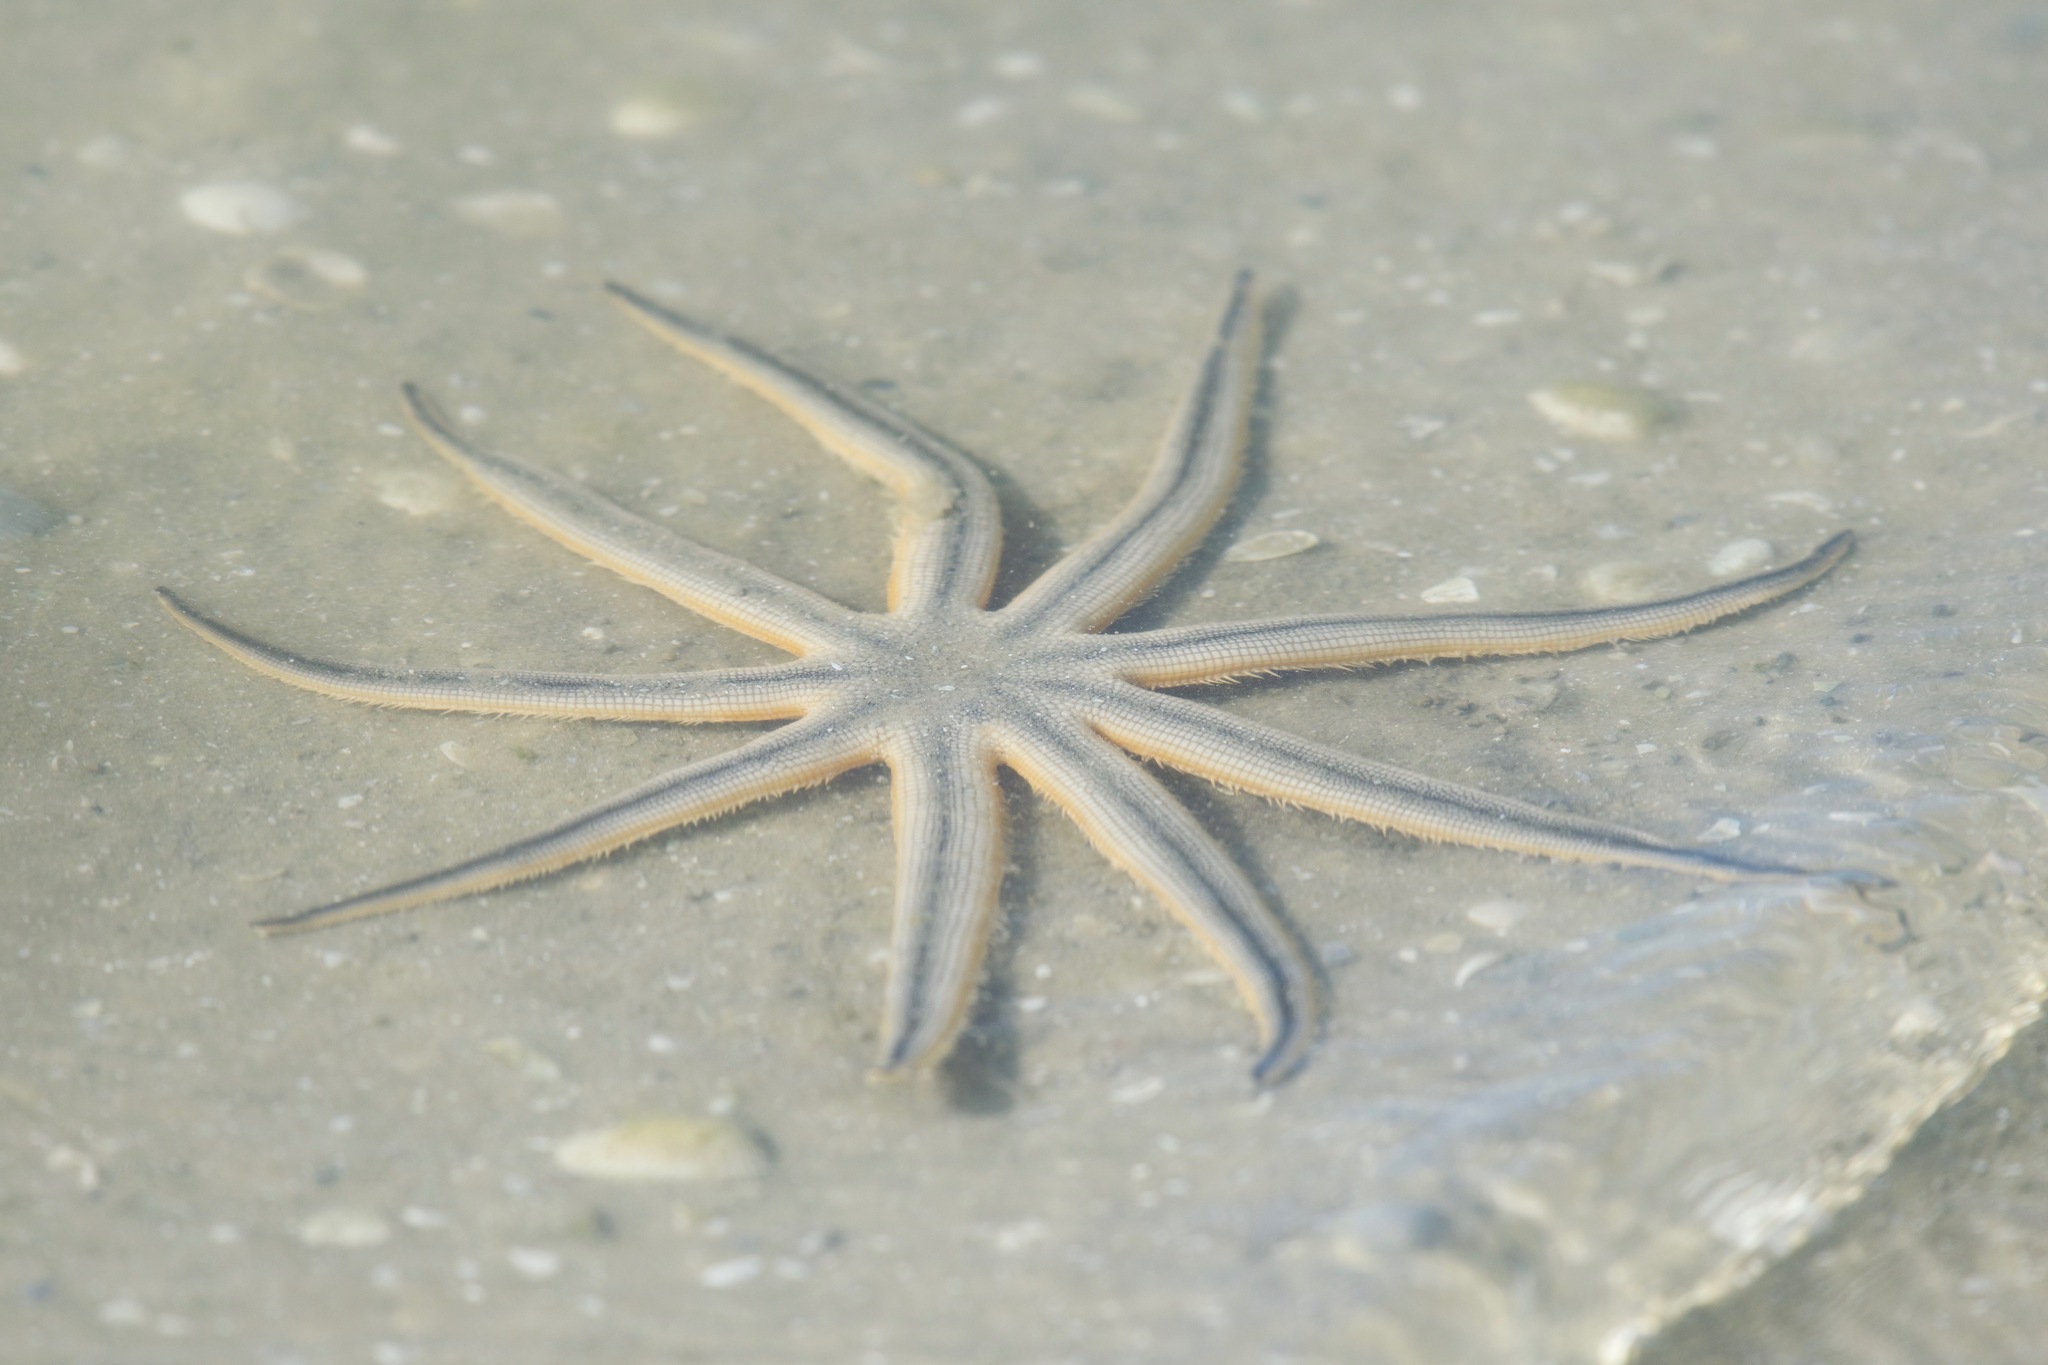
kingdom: Animalia
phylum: Echinodermata
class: Asteroidea
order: Paxillosida
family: Luidiidae
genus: Luidia
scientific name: Luidia senegalensis
